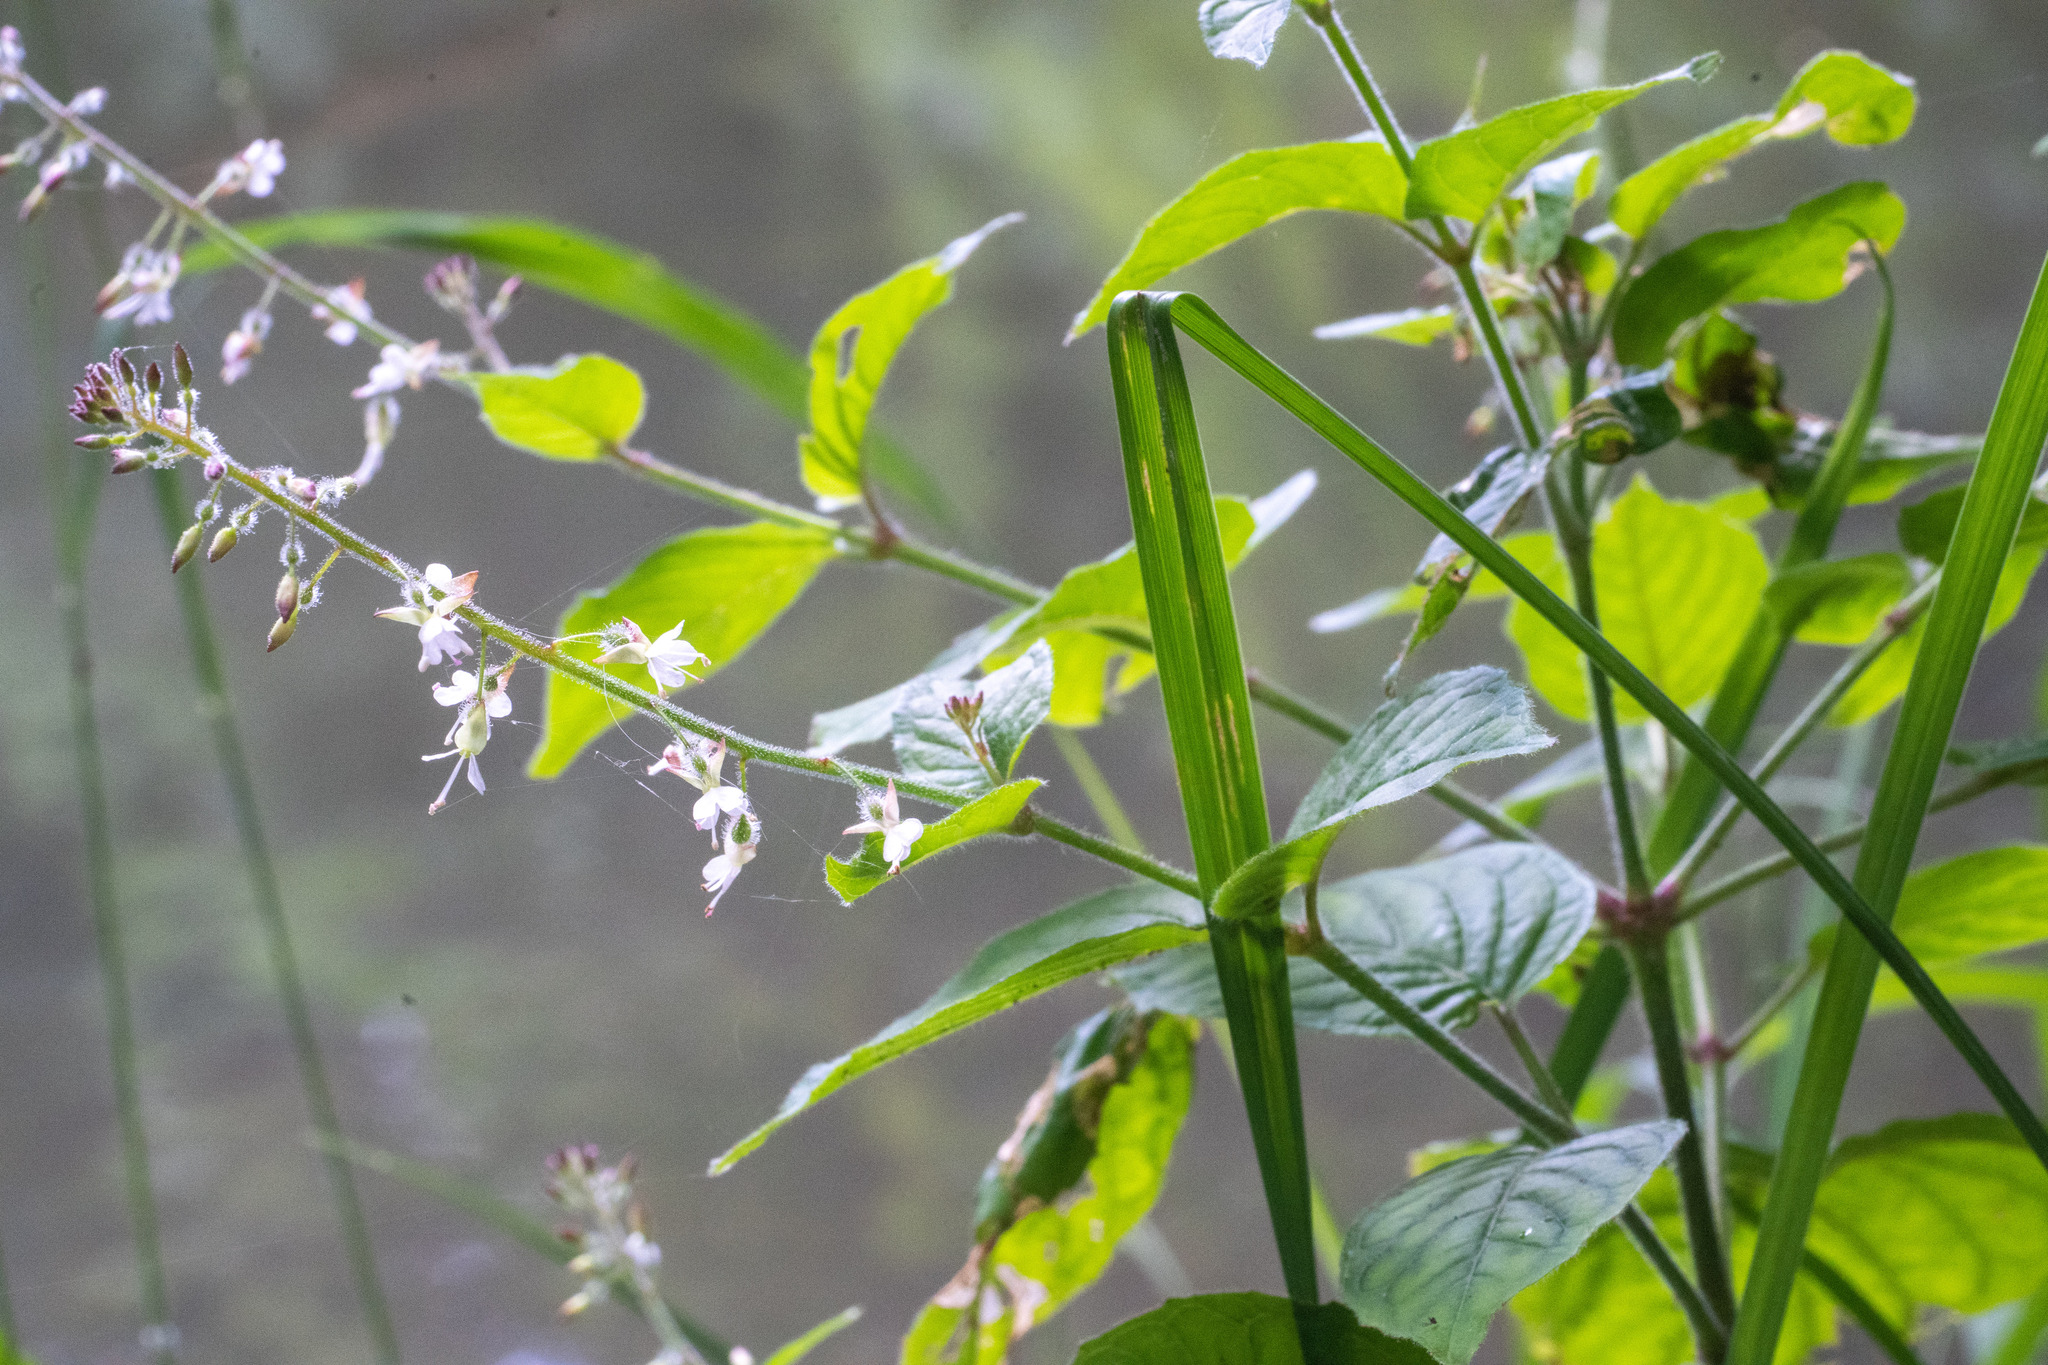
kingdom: Plantae
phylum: Tracheophyta
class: Magnoliopsida
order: Myrtales
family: Onagraceae
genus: Circaea
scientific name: Circaea lutetiana
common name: Enchanter's-nightshade
